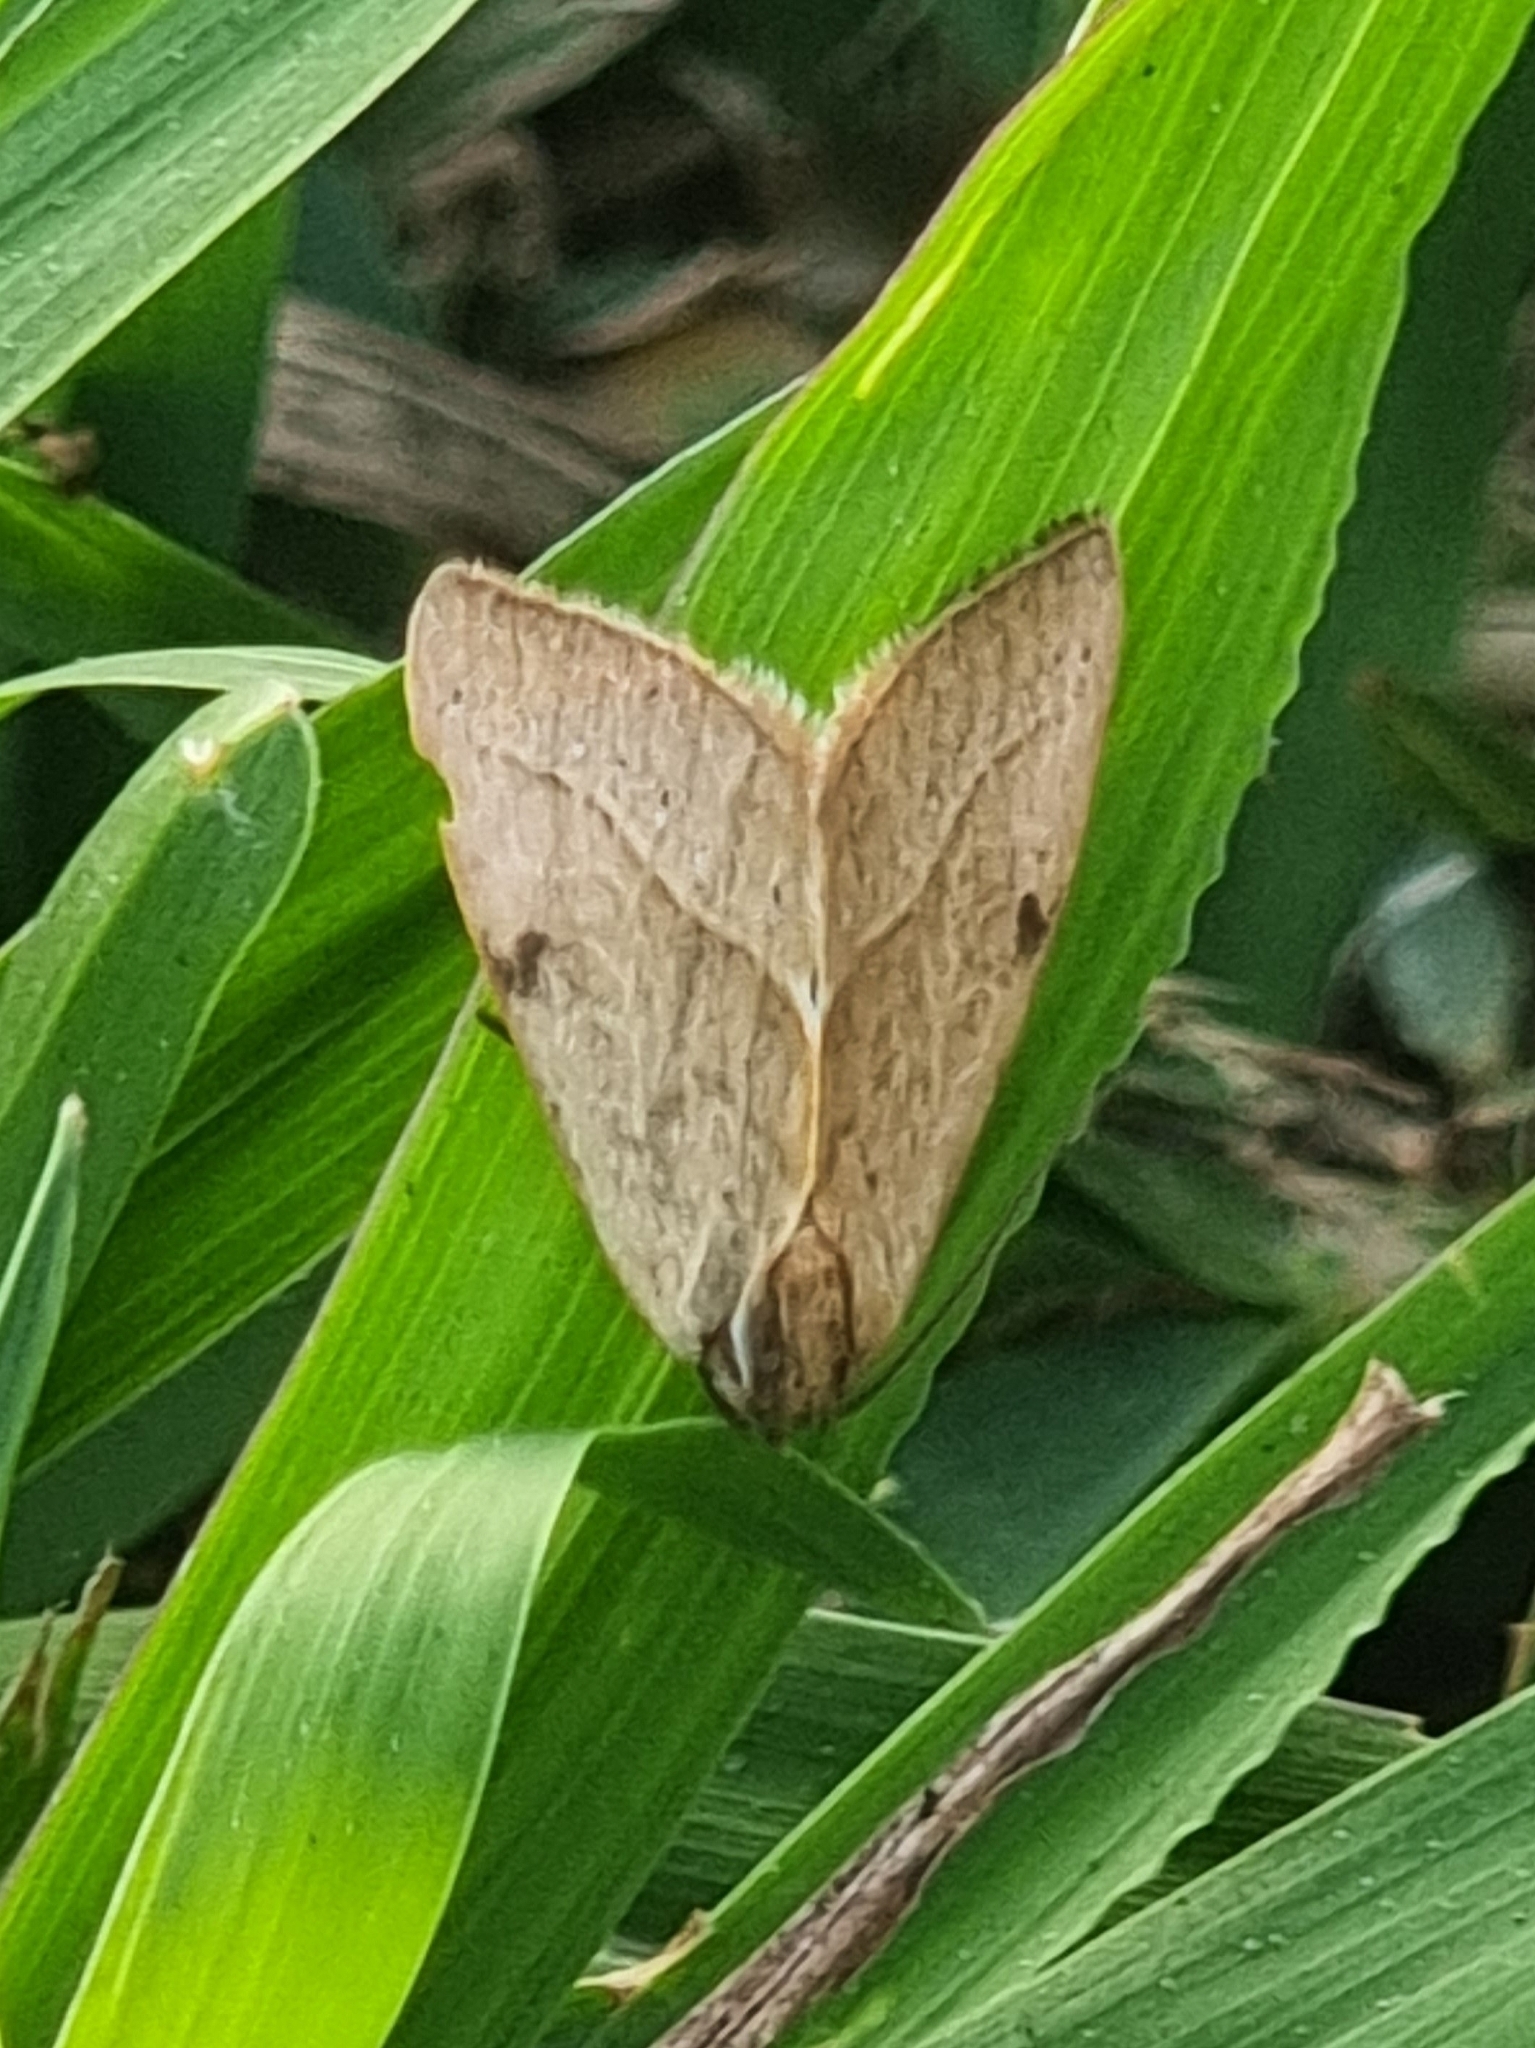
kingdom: Animalia
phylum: Arthropoda
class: Insecta
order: Lepidoptera
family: Noctuidae
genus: Galgula
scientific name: Galgula partita
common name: Wedgeling
